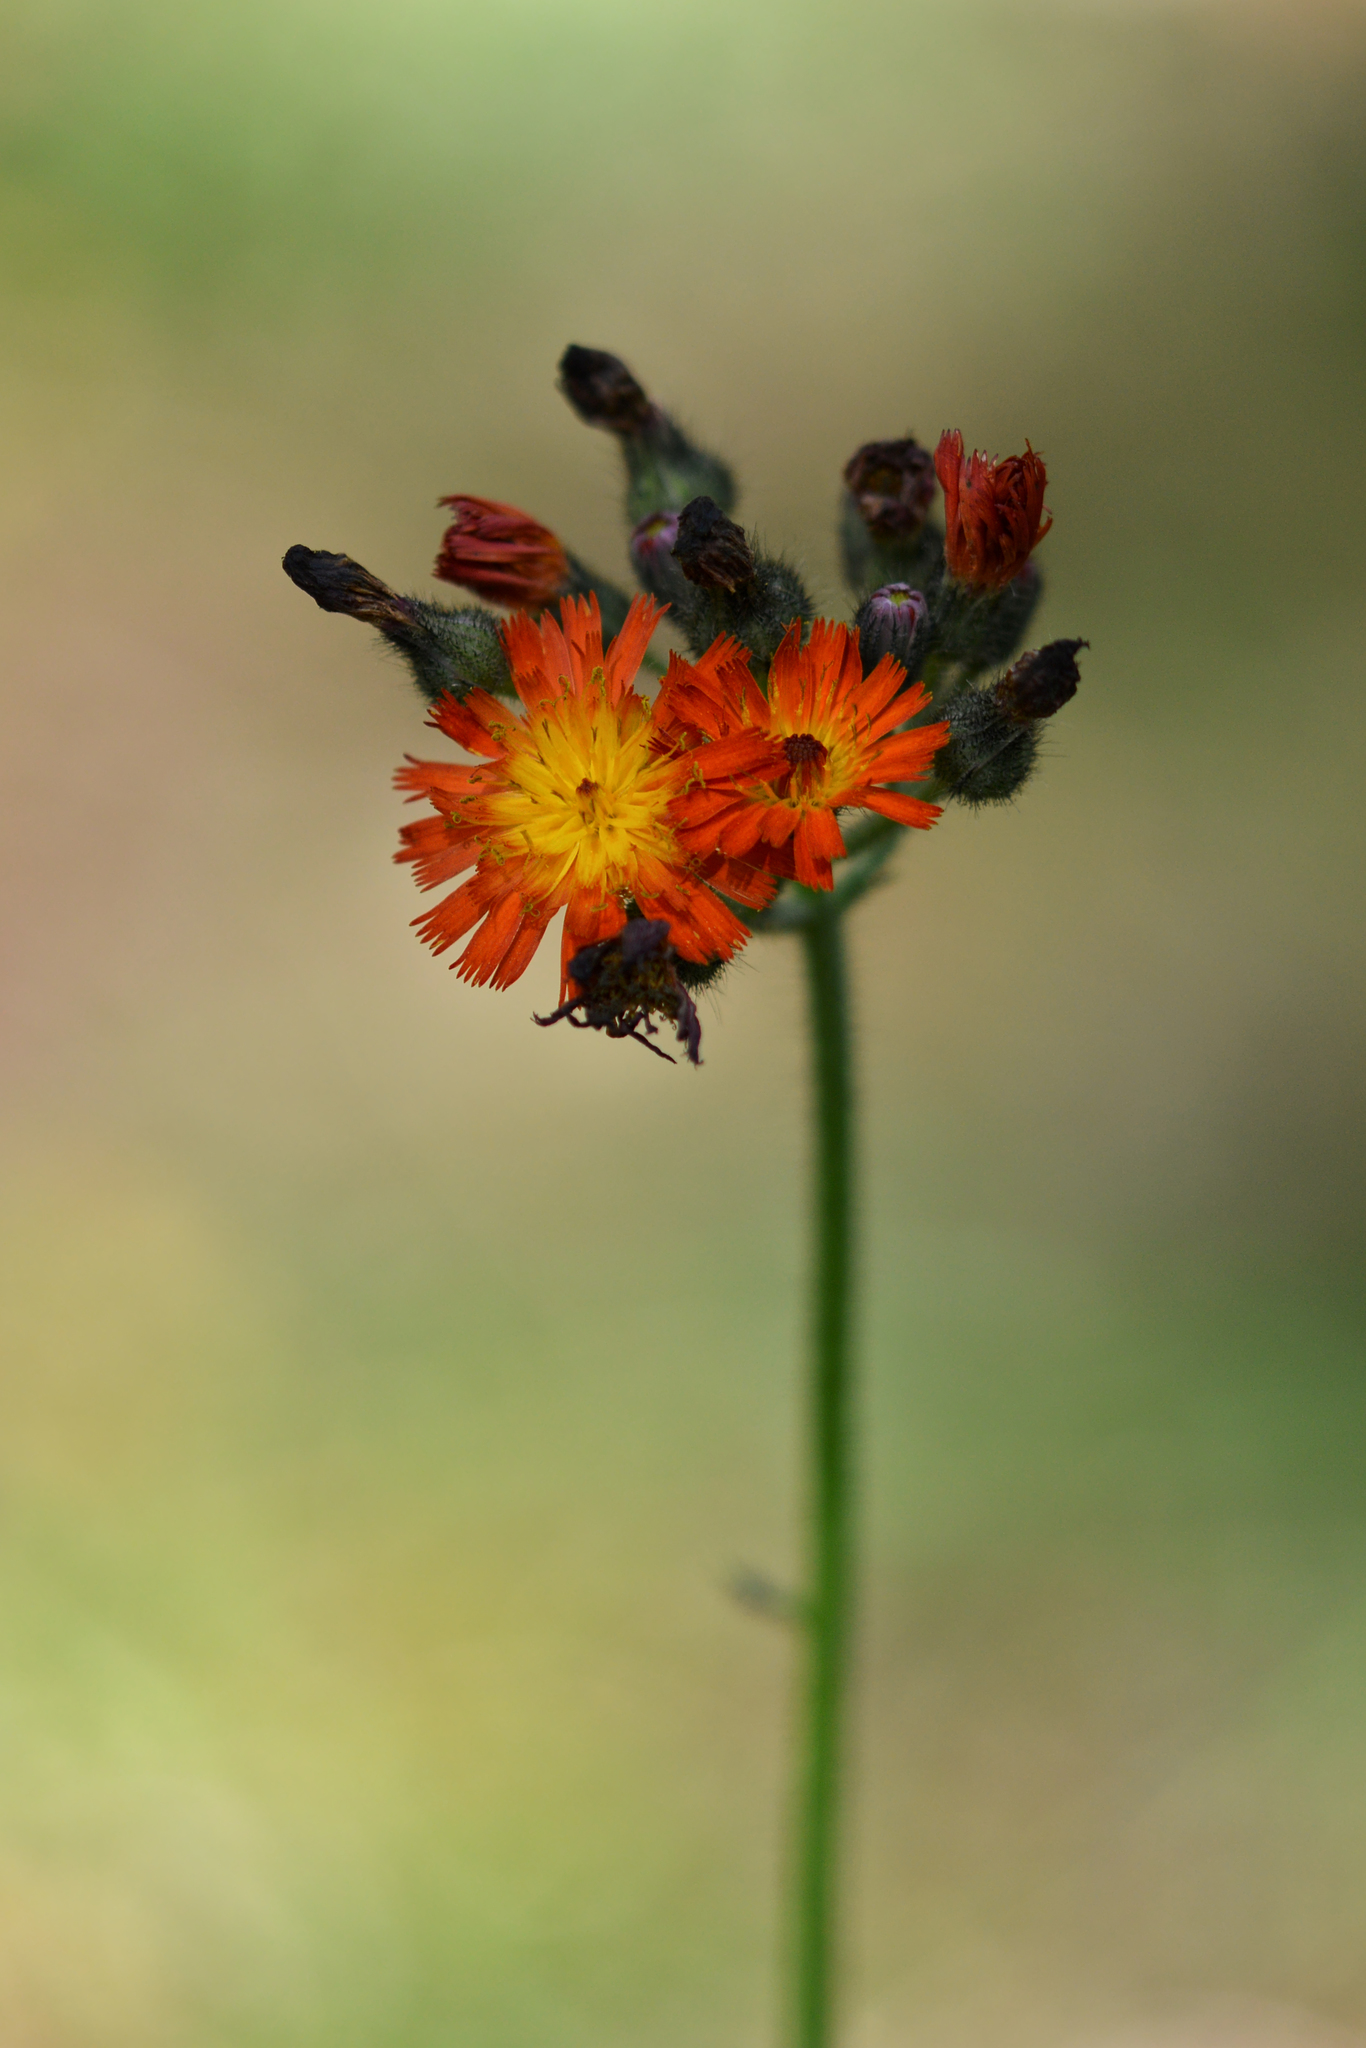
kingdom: Plantae
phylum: Tracheophyta
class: Magnoliopsida
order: Asterales
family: Asteraceae
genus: Pilosella
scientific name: Pilosella aurantiaca
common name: Fox-and-cubs
